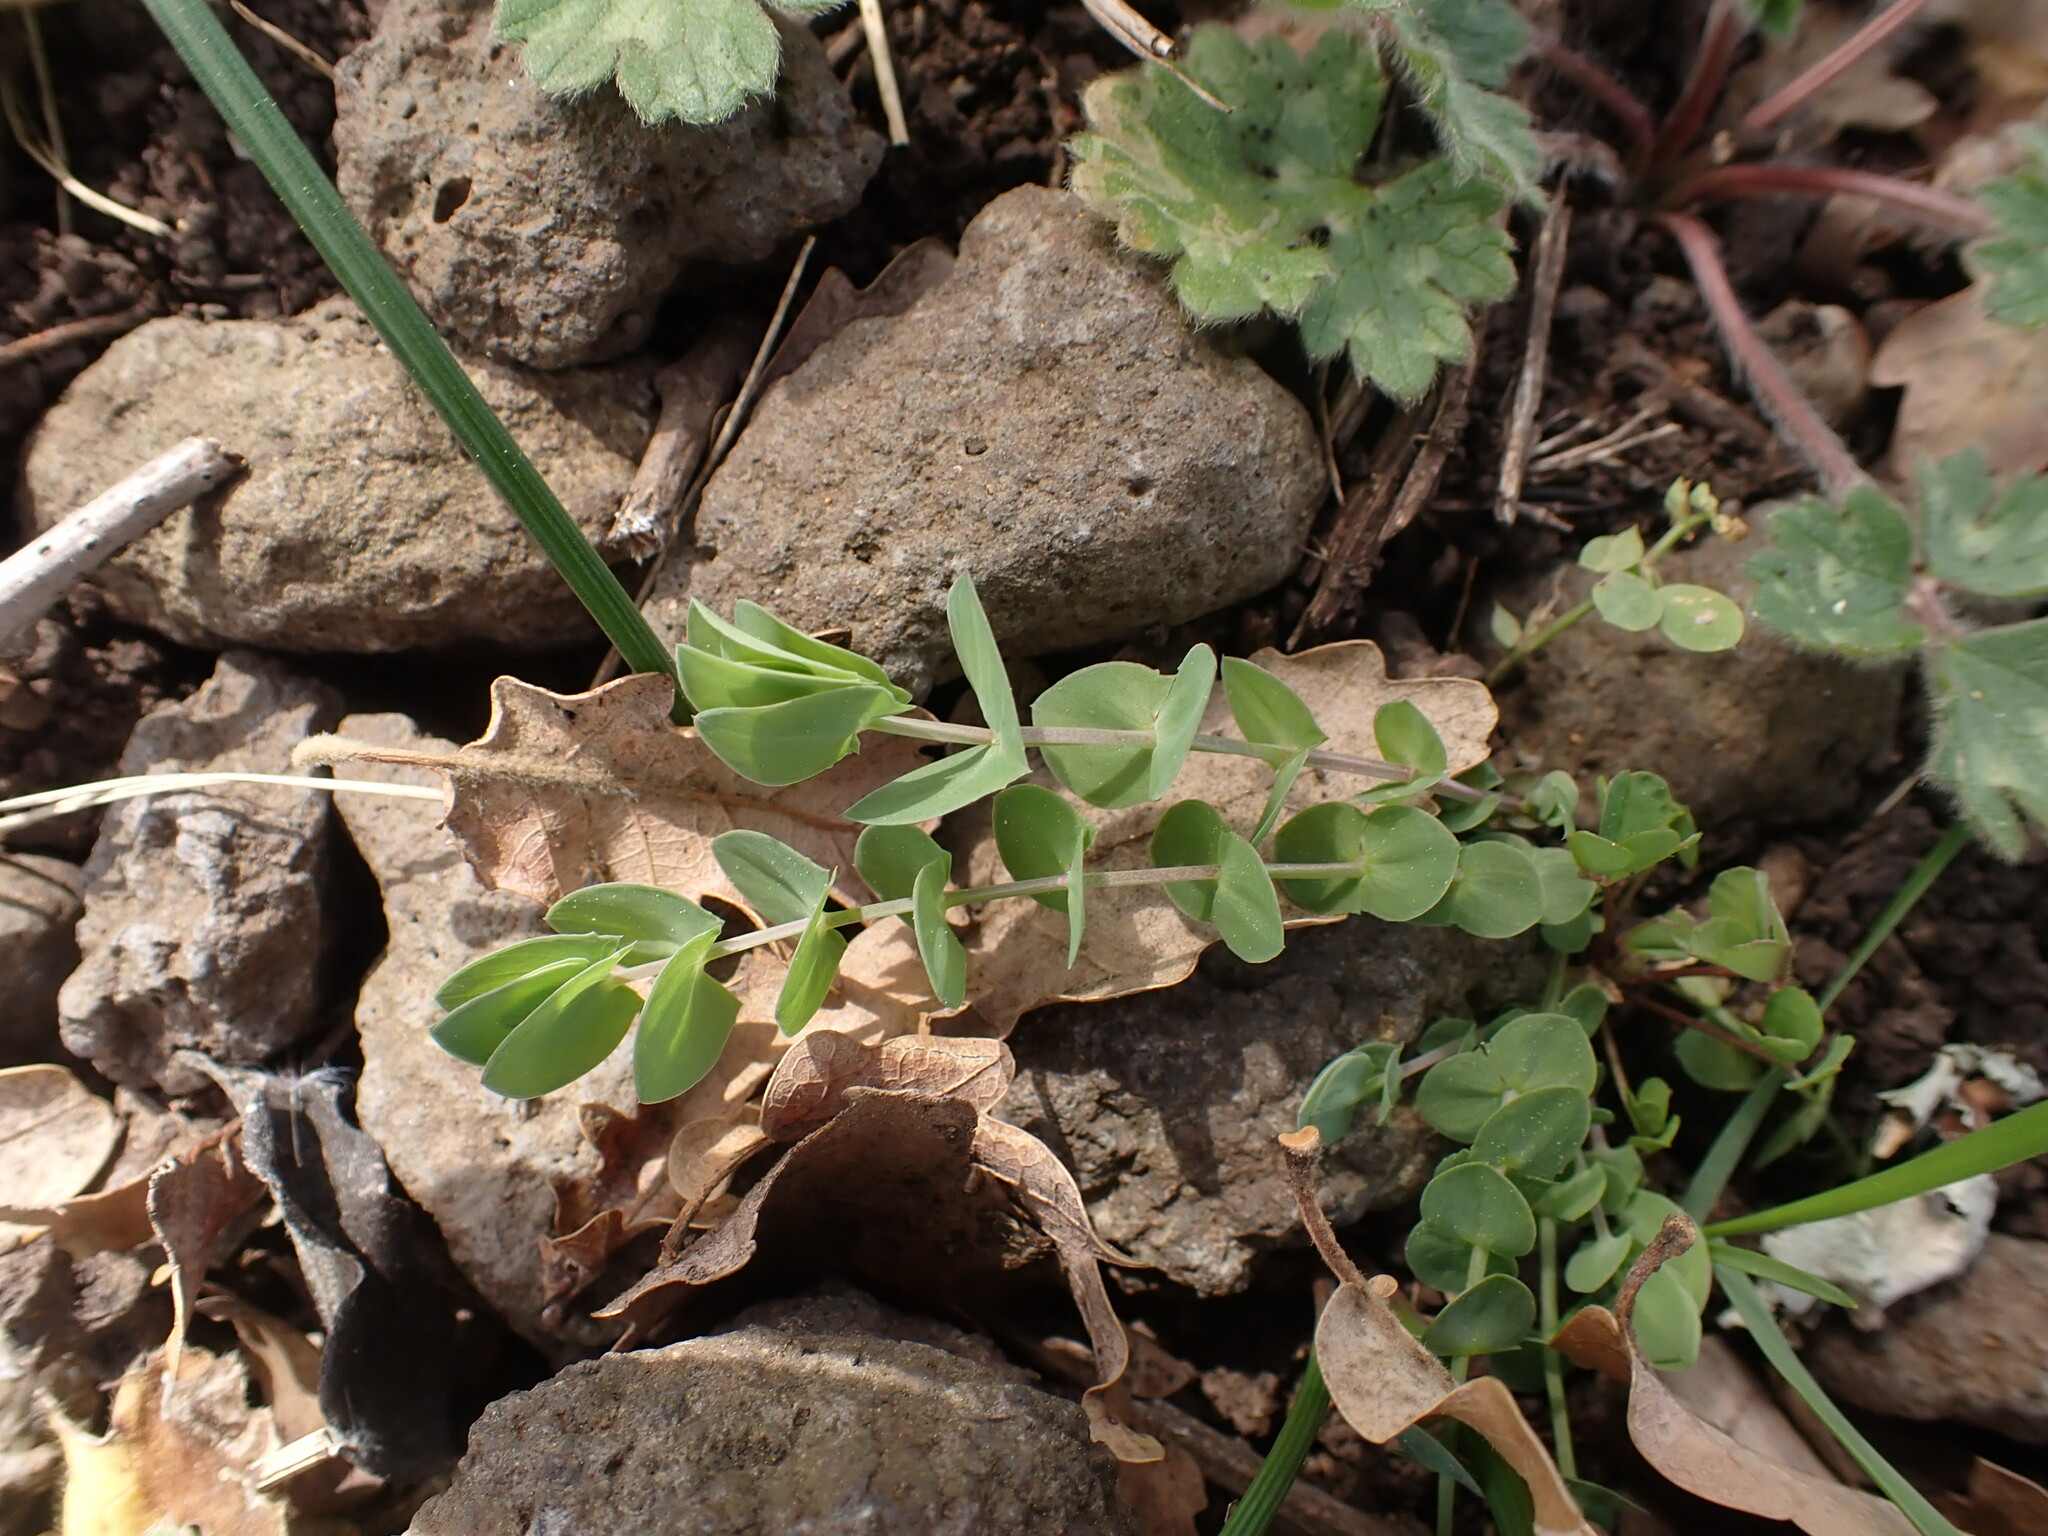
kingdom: Plantae
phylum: Tracheophyta
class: Magnoliopsida
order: Fabales
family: Fabaceae
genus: Lathyrus
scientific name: Lathyrus aphaca
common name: Yellow vetchling
